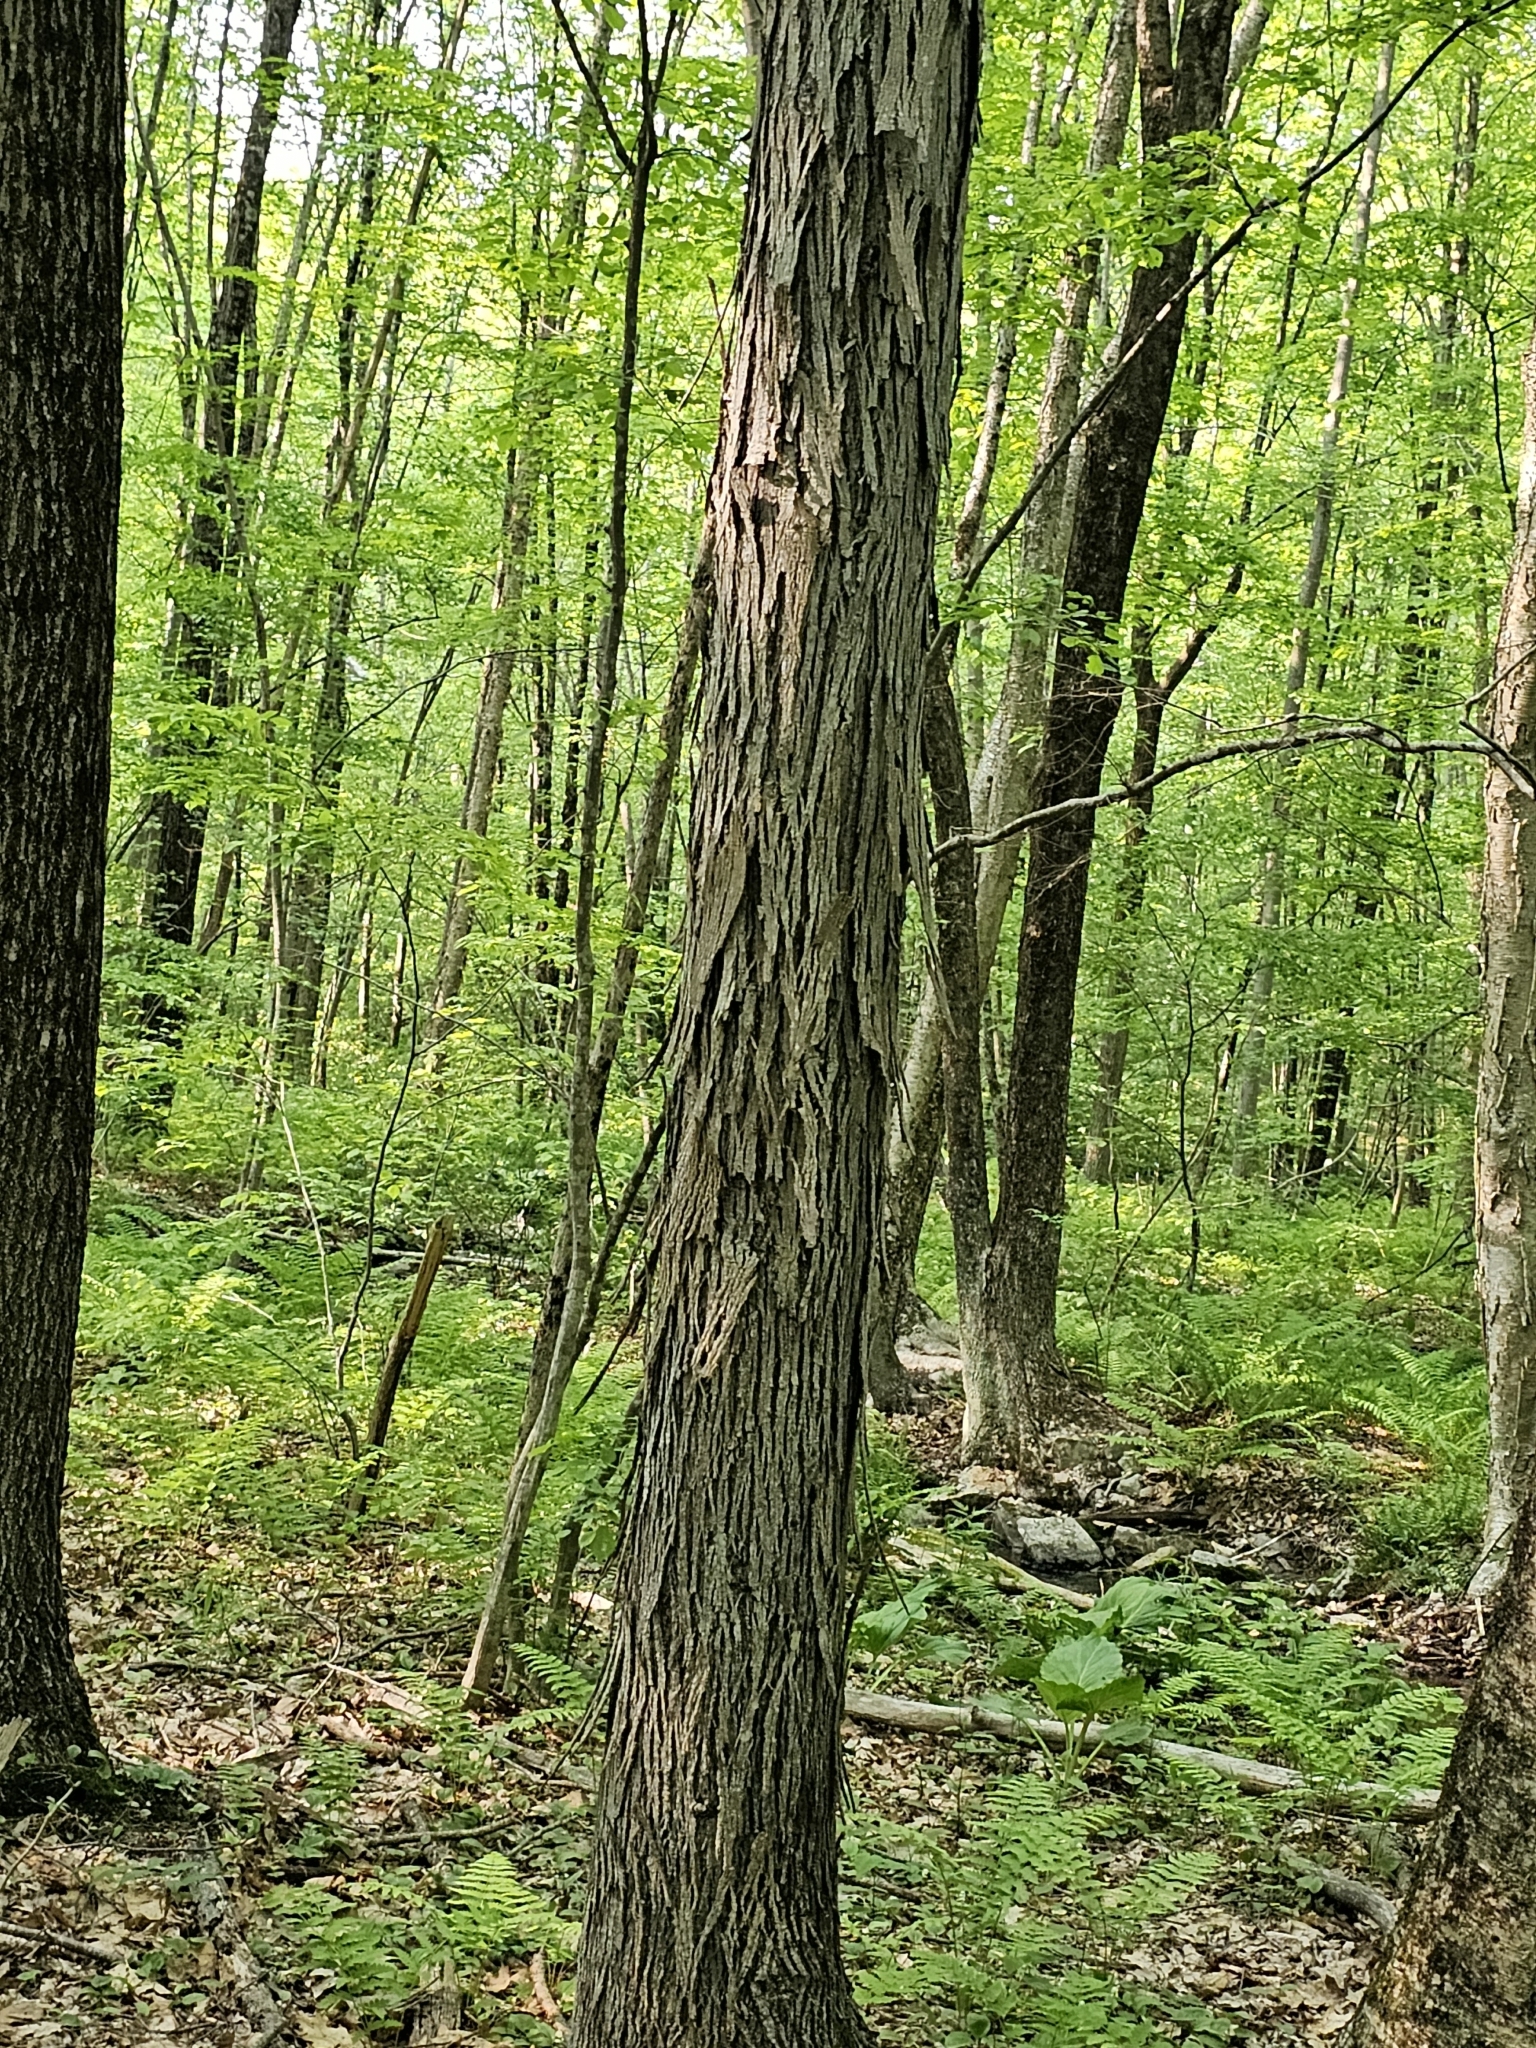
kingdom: Plantae
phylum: Tracheophyta
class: Magnoliopsida
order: Fagales
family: Juglandaceae
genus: Carya
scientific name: Carya ovata
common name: Shagbark hickory
